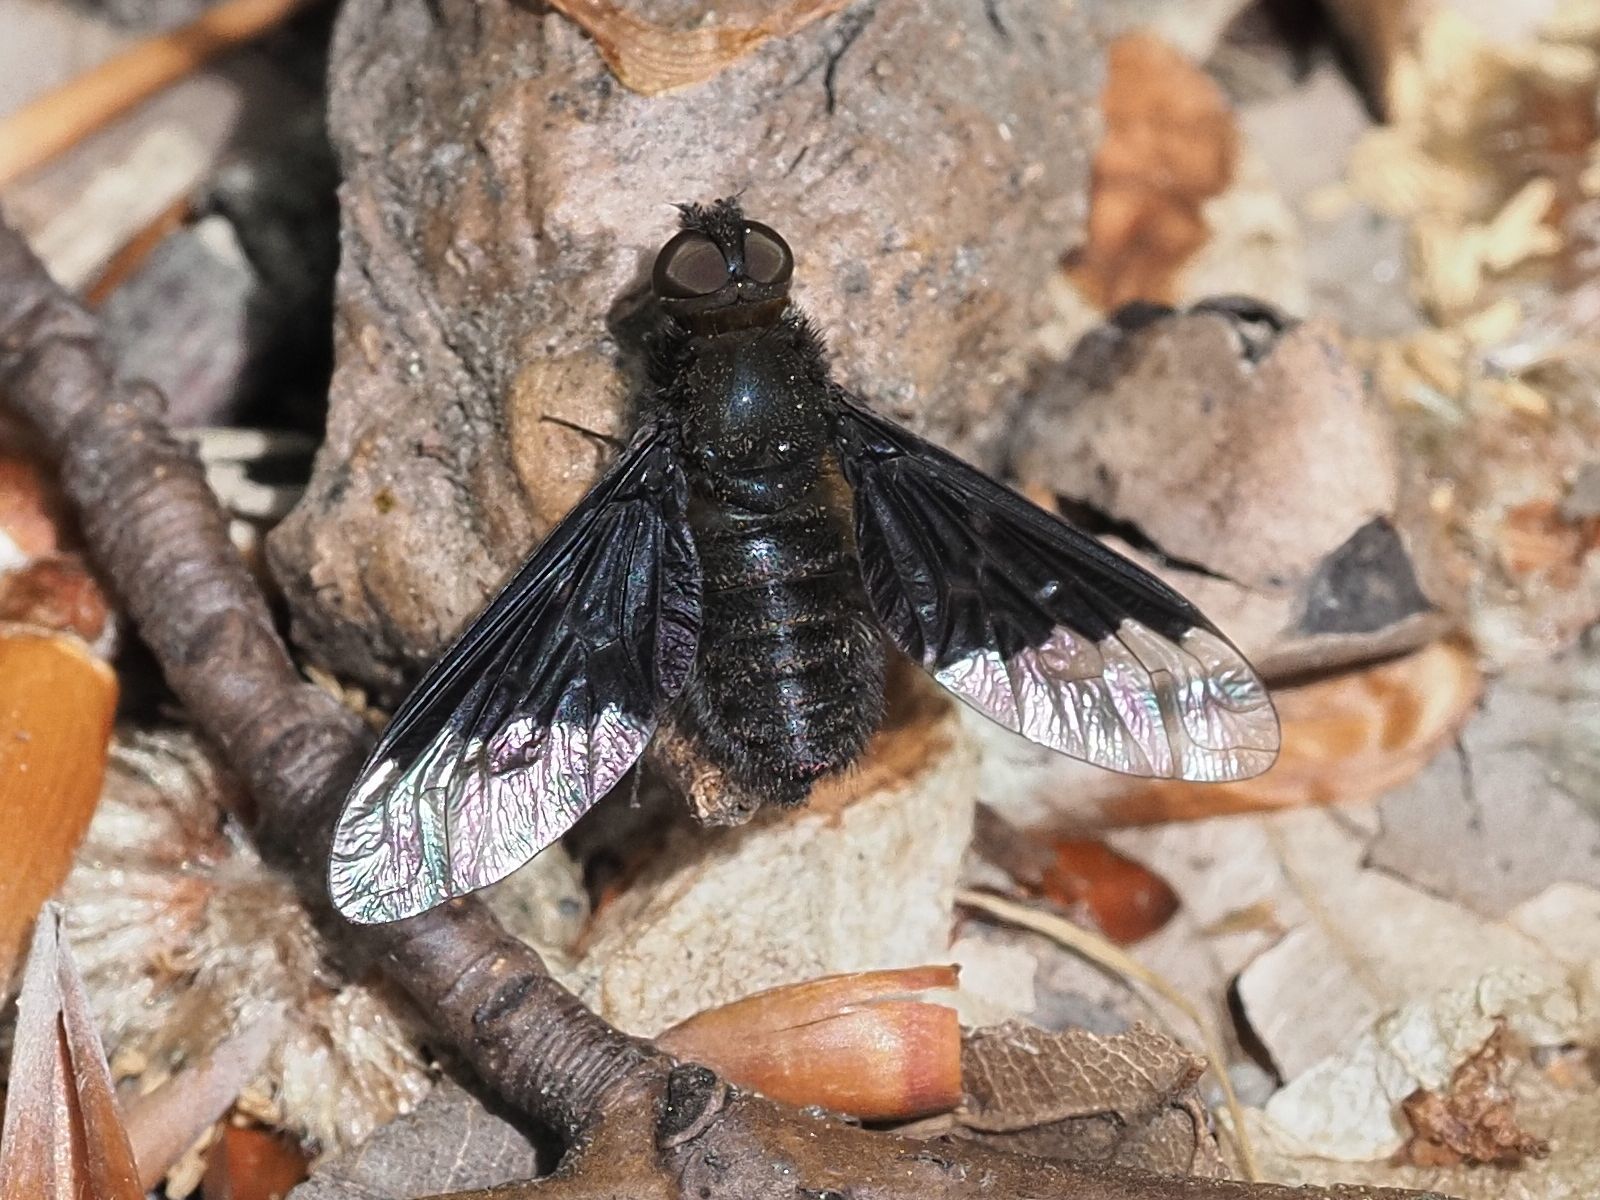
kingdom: Animalia
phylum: Arthropoda
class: Insecta
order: Diptera
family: Bombyliidae
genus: Hemipenthes
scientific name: Hemipenthes morio
